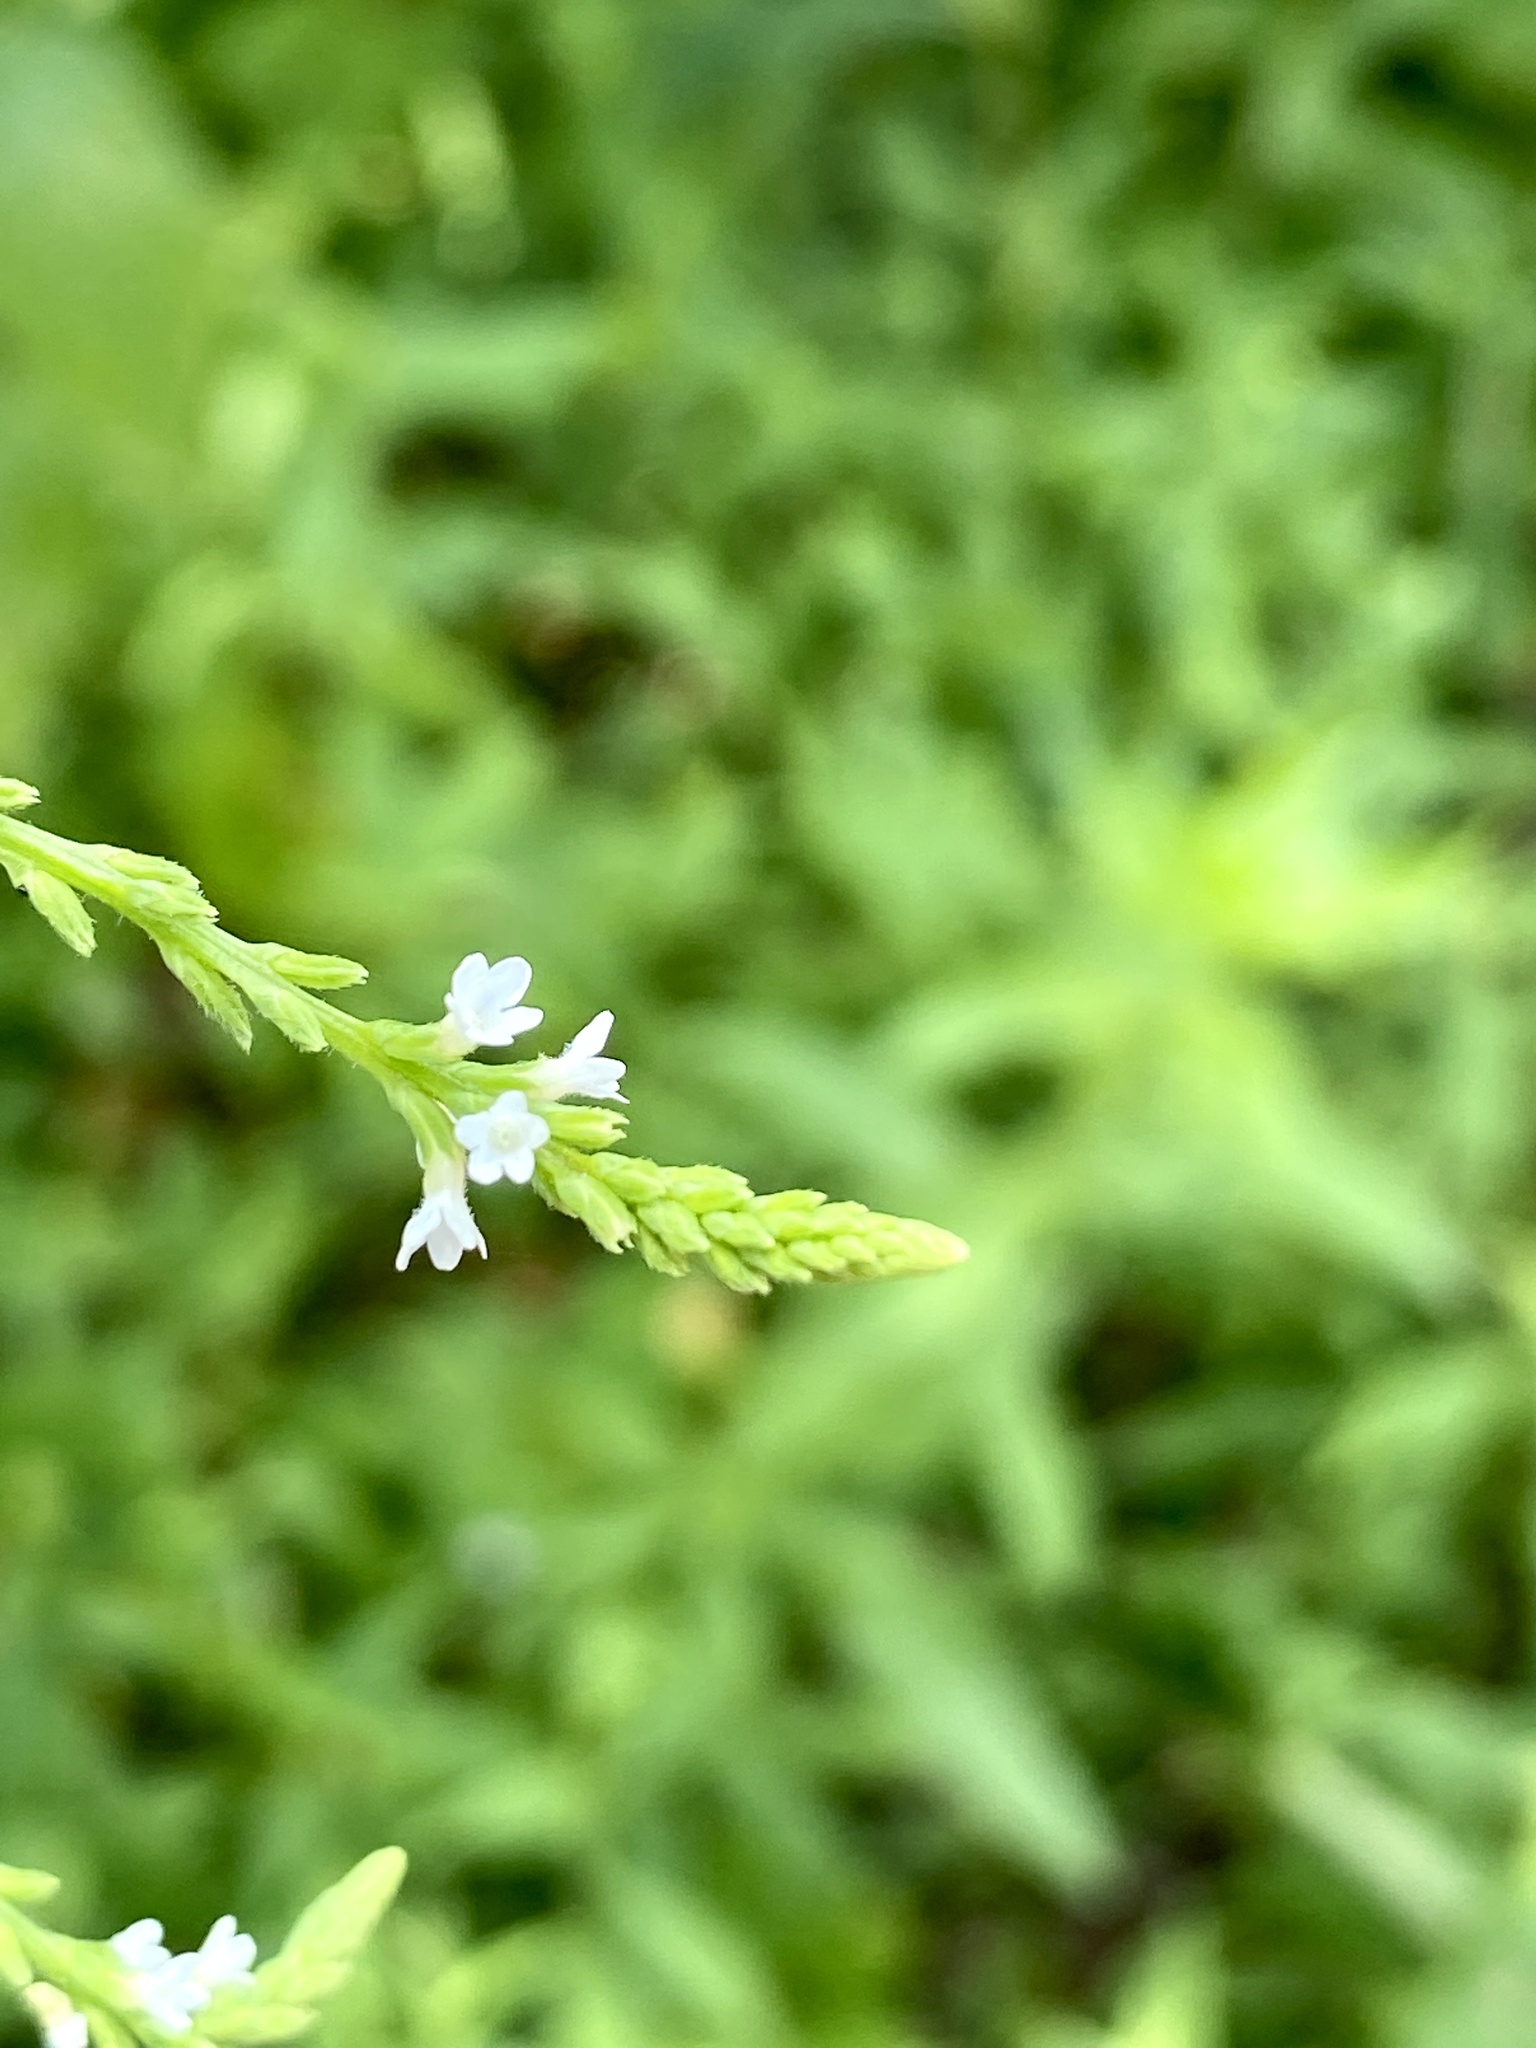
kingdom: Plantae
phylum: Tracheophyta
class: Magnoliopsida
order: Lamiales
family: Verbenaceae
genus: Verbena
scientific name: Verbena urticifolia
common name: Nettle-leaved vervain
